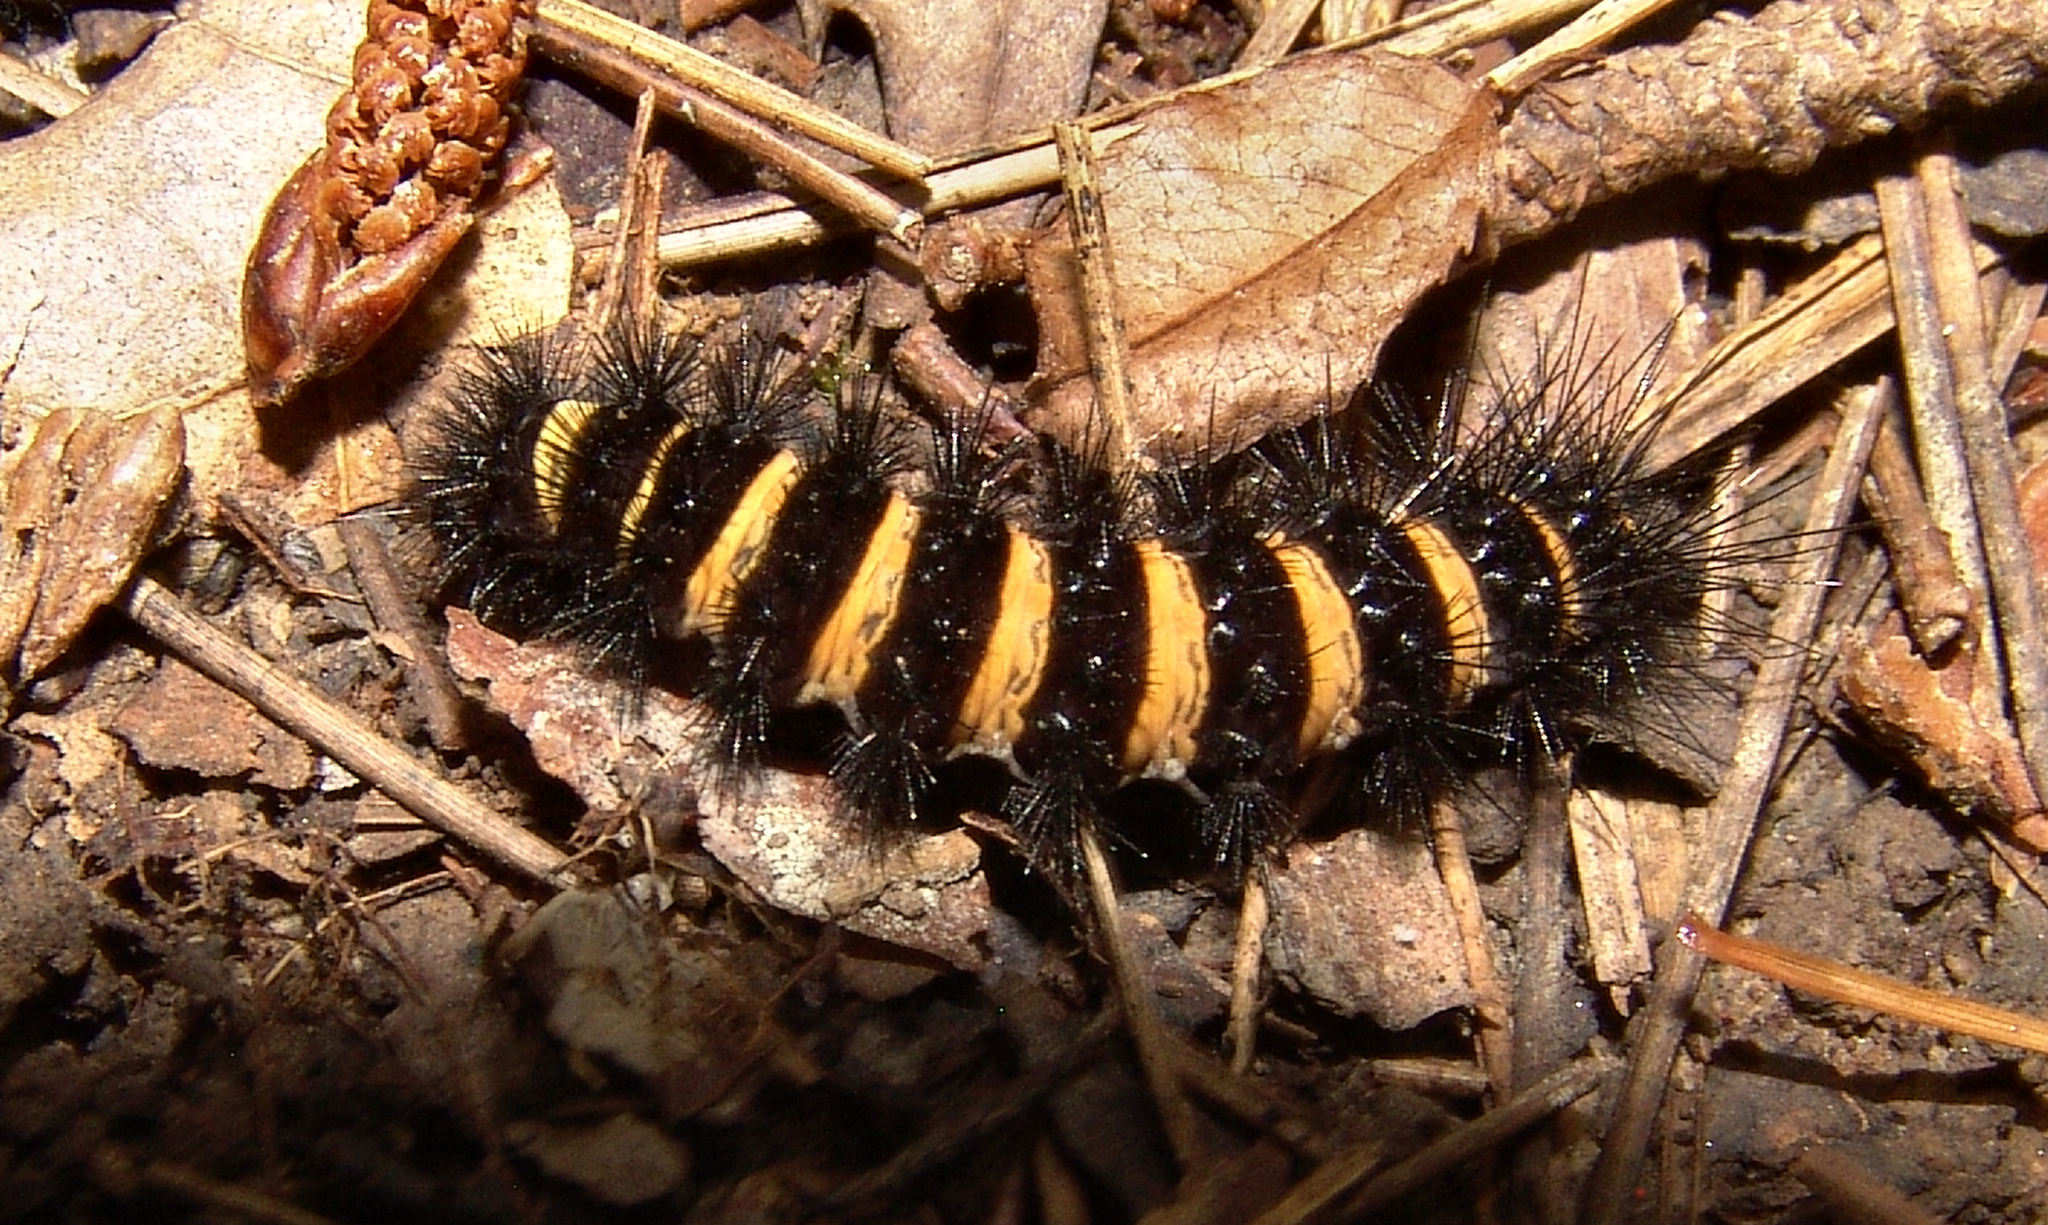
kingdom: Animalia
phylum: Arthropoda
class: Insecta
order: Lepidoptera
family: Erebidae
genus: Spilosoma
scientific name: Spilosoma congrua
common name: Agreeable tiger moth
